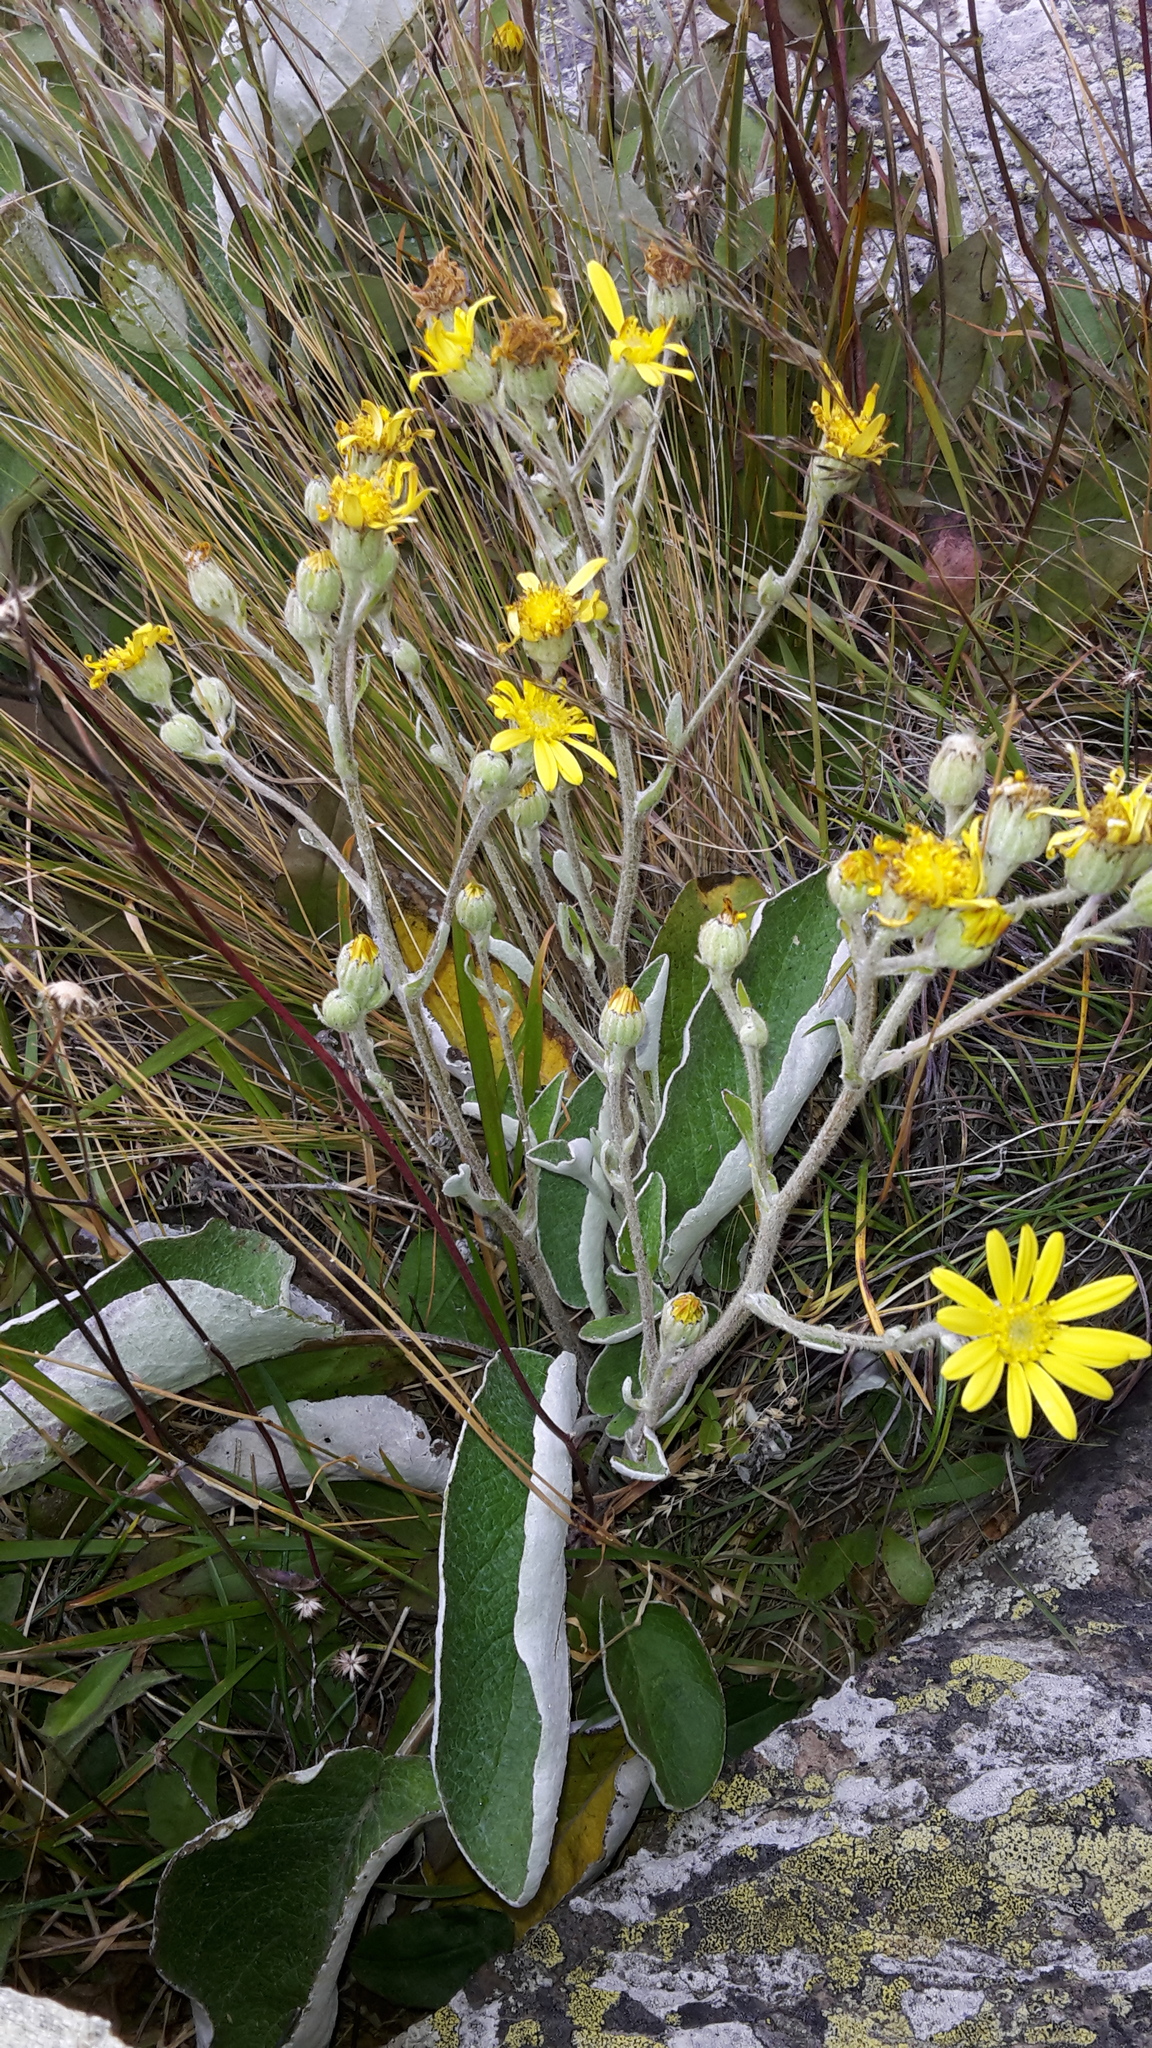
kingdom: Plantae
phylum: Tracheophyta
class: Magnoliopsida
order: Asterales
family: Asteraceae
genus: Brachyglottis
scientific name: Brachyglottis lagopus
